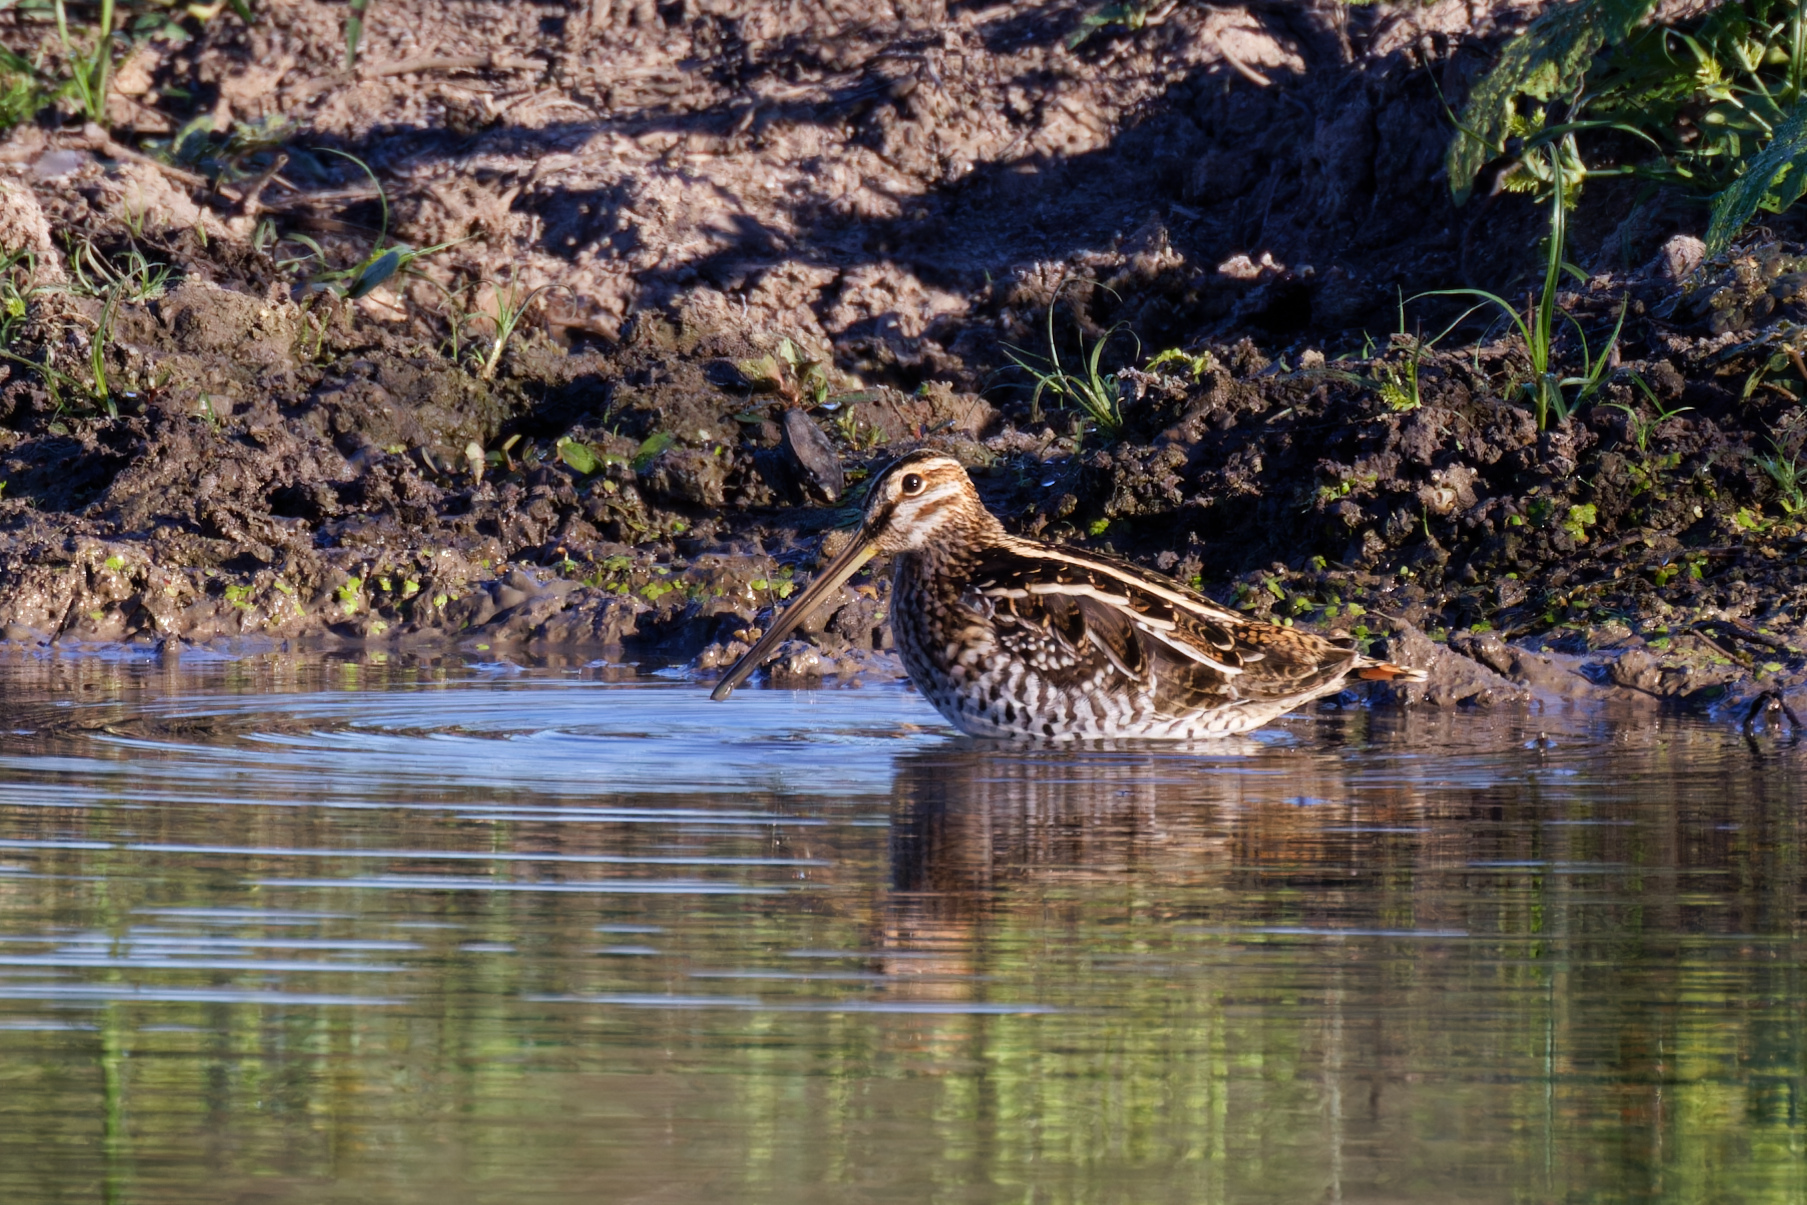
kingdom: Animalia
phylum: Chordata
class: Aves
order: Charadriiformes
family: Scolopacidae
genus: Gallinago
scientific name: Gallinago delicata
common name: Wilson's snipe
